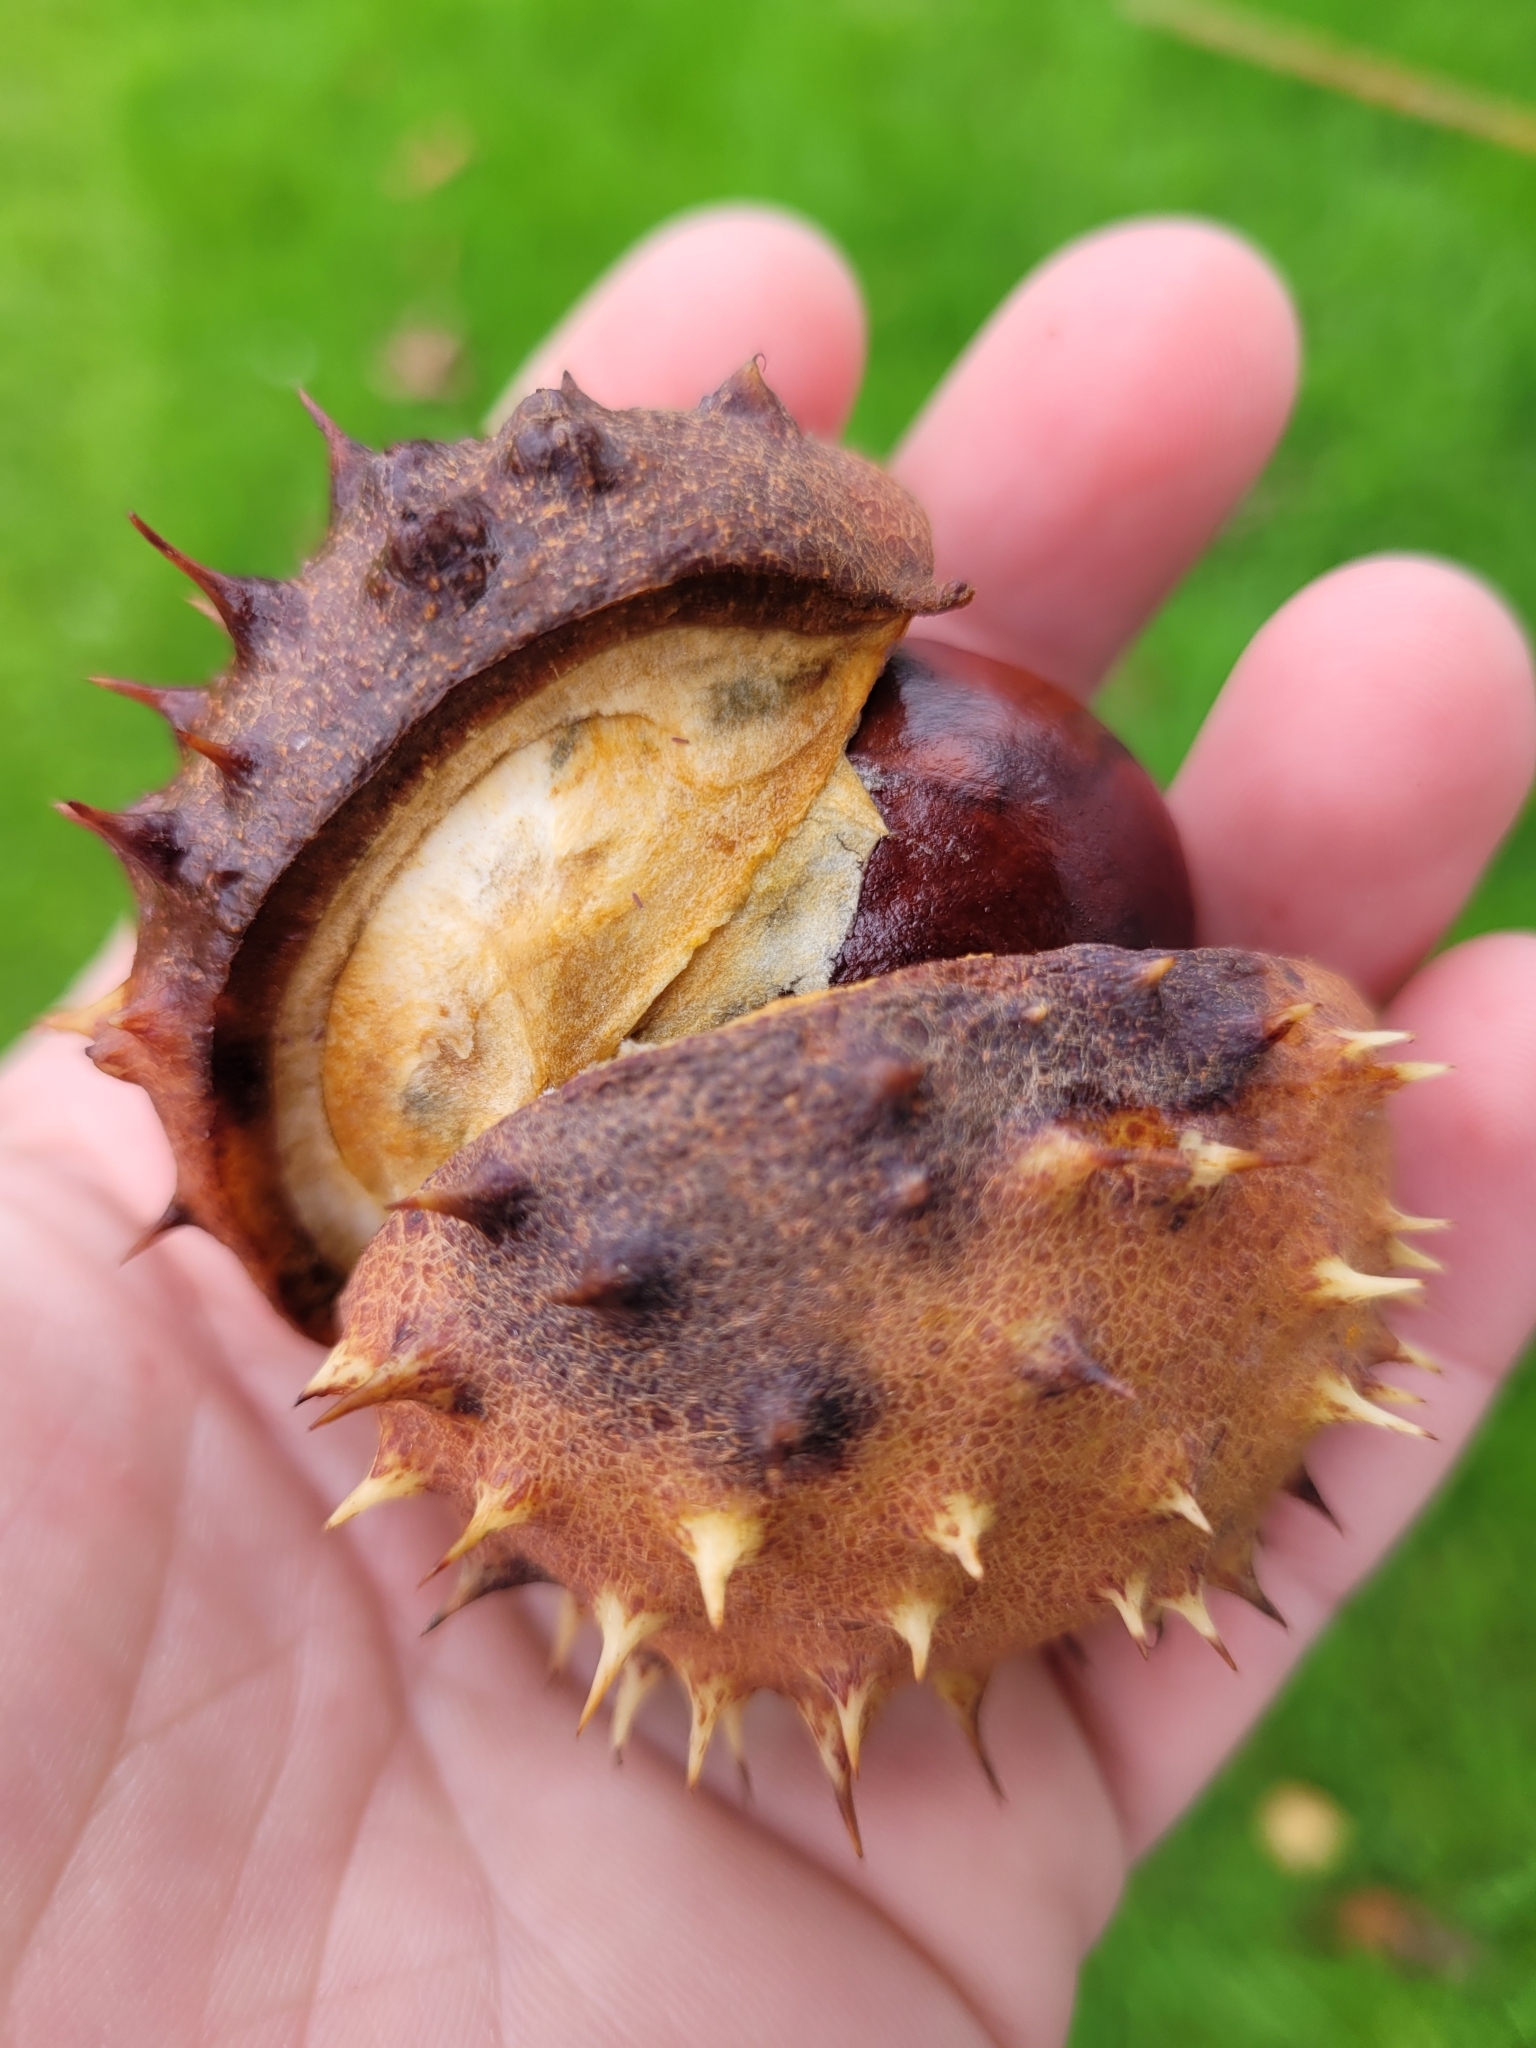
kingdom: Plantae
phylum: Tracheophyta
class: Magnoliopsida
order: Sapindales
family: Sapindaceae
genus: Aesculus
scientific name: Aesculus hippocastanum
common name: Horse-chestnut
